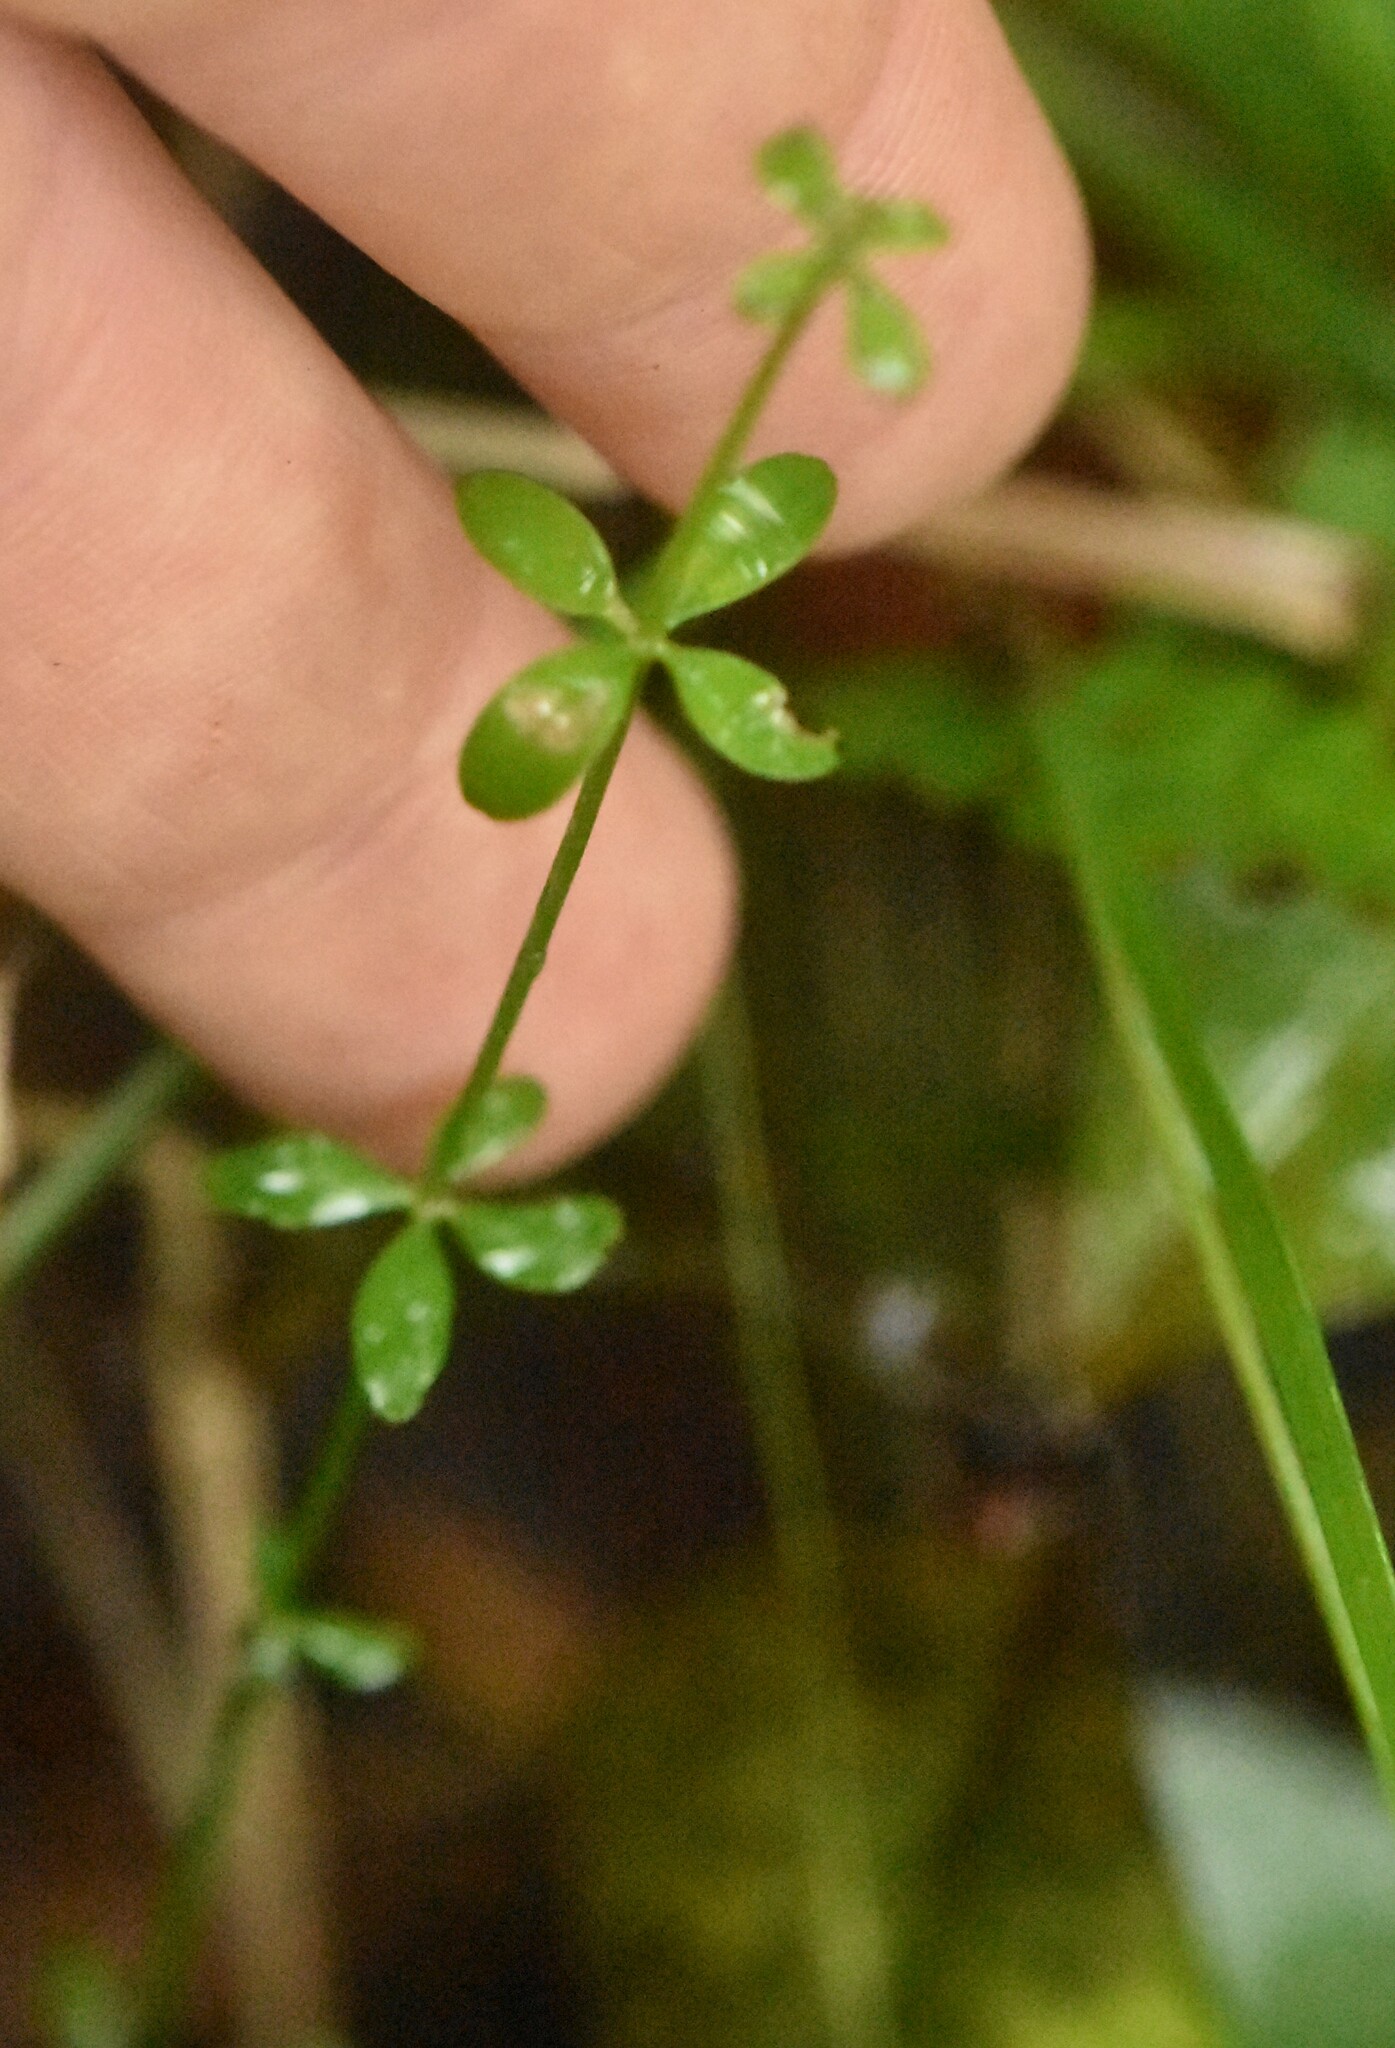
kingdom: Plantae
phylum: Tracheophyta
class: Magnoliopsida
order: Gentianales
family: Rubiaceae
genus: Galium
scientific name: Galium palustre
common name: Common marsh-bedstraw
